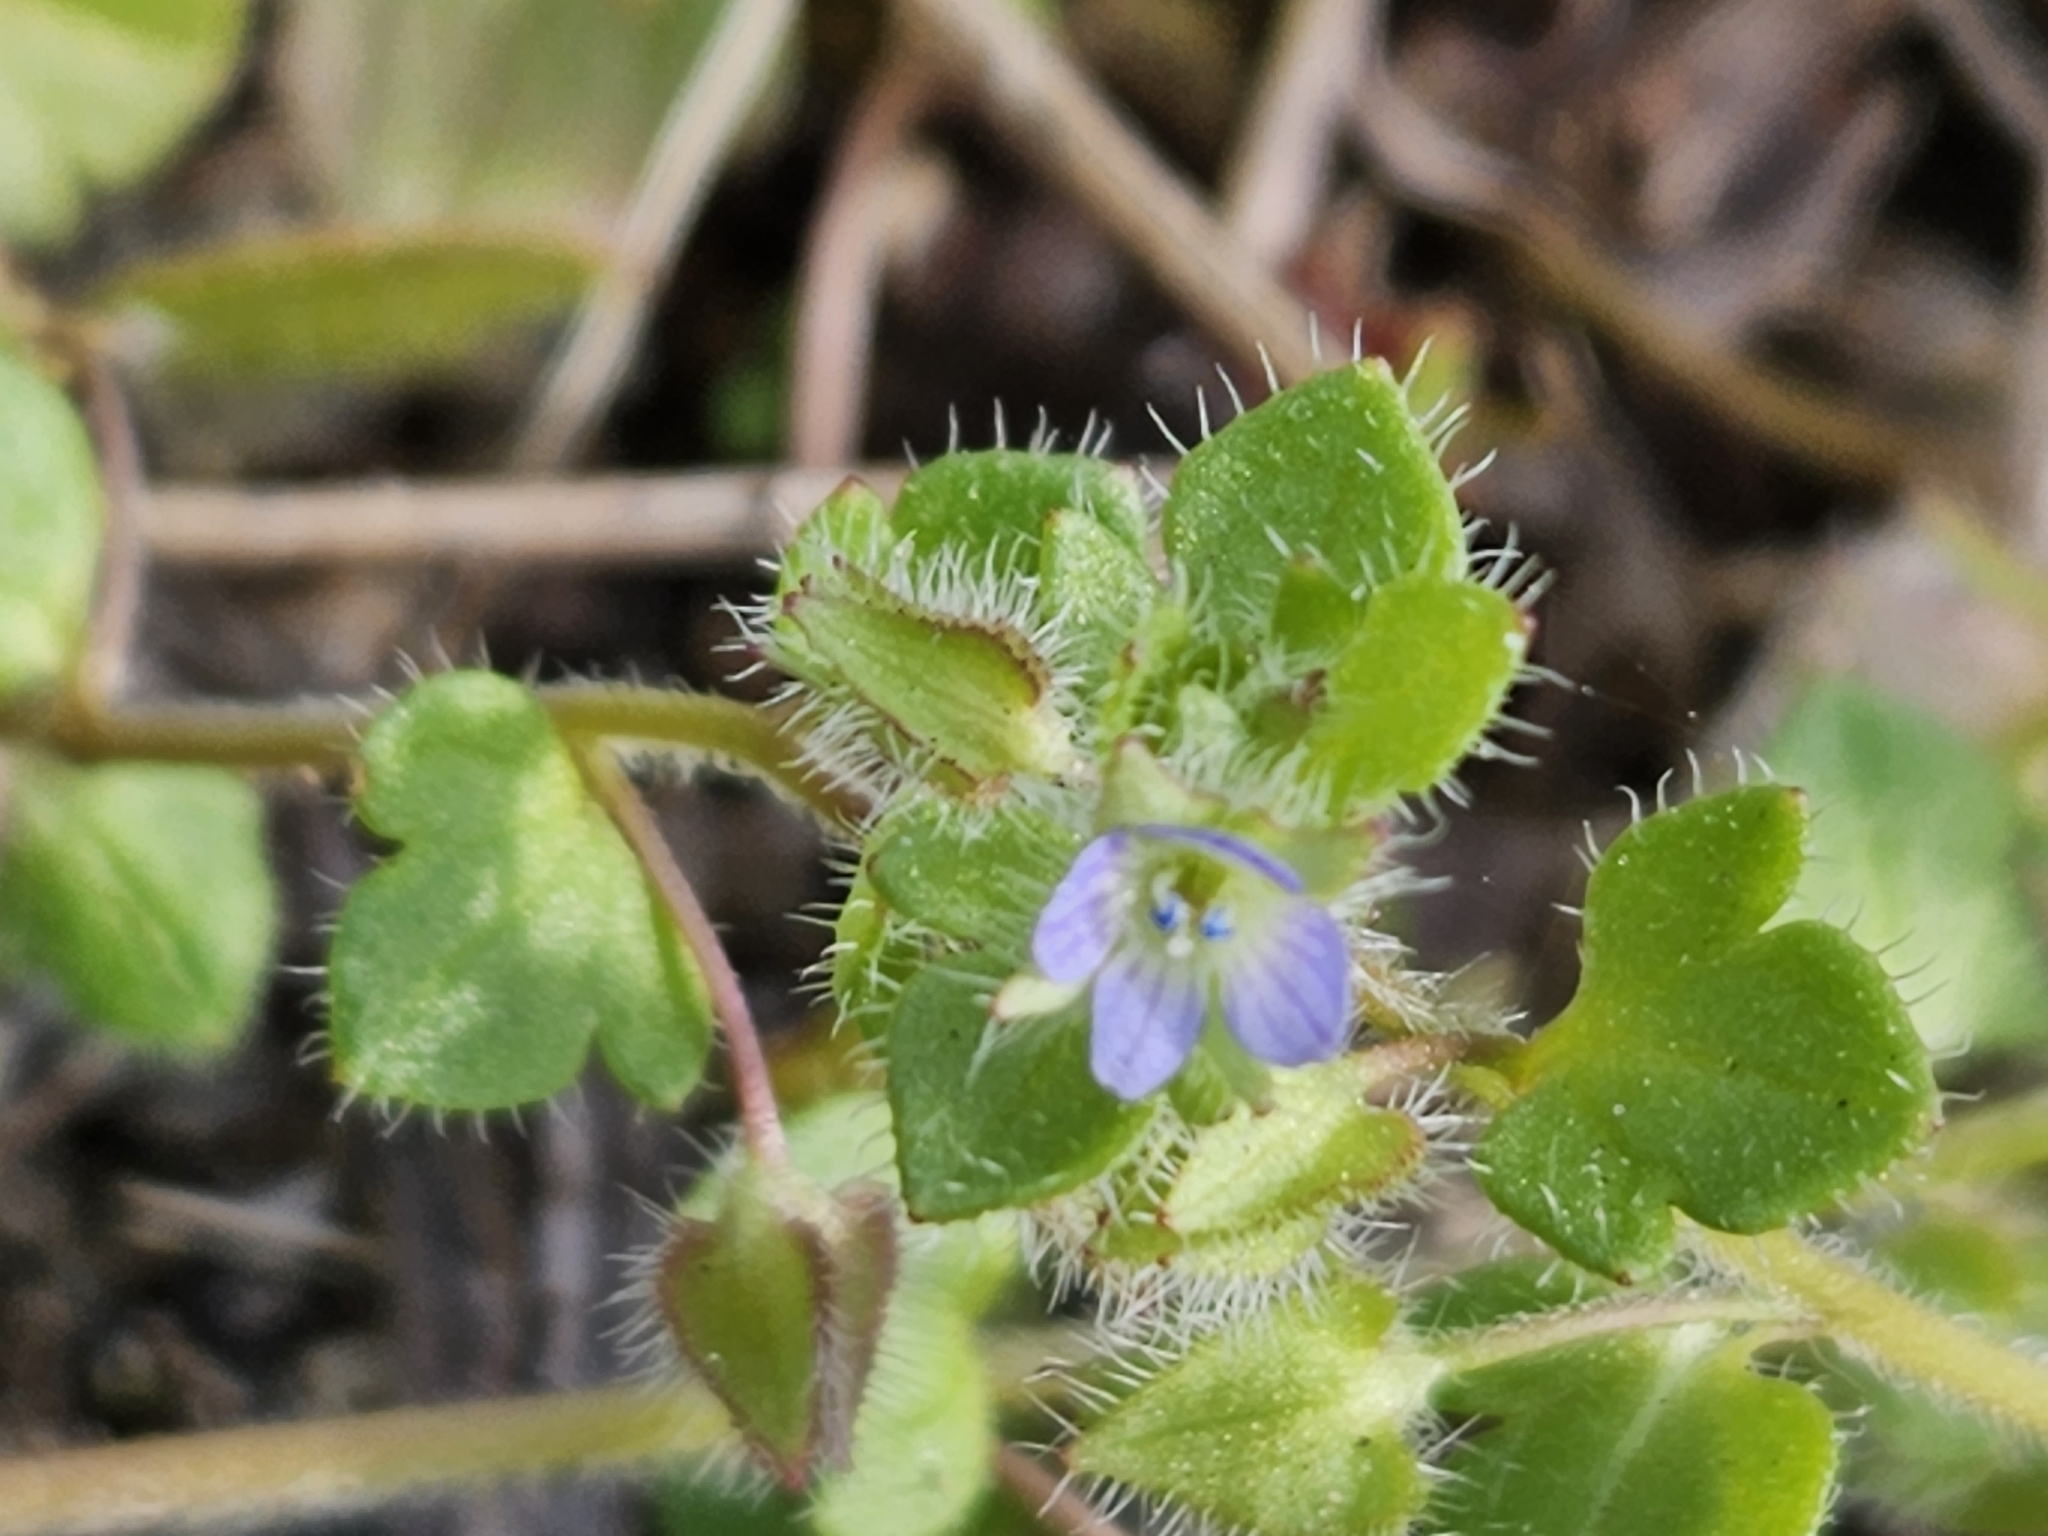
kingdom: Plantae
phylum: Tracheophyta
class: Magnoliopsida
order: Lamiales
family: Plantaginaceae
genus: Veronica
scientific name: Veronica hederifolia
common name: Ivy-leaved speedwell
